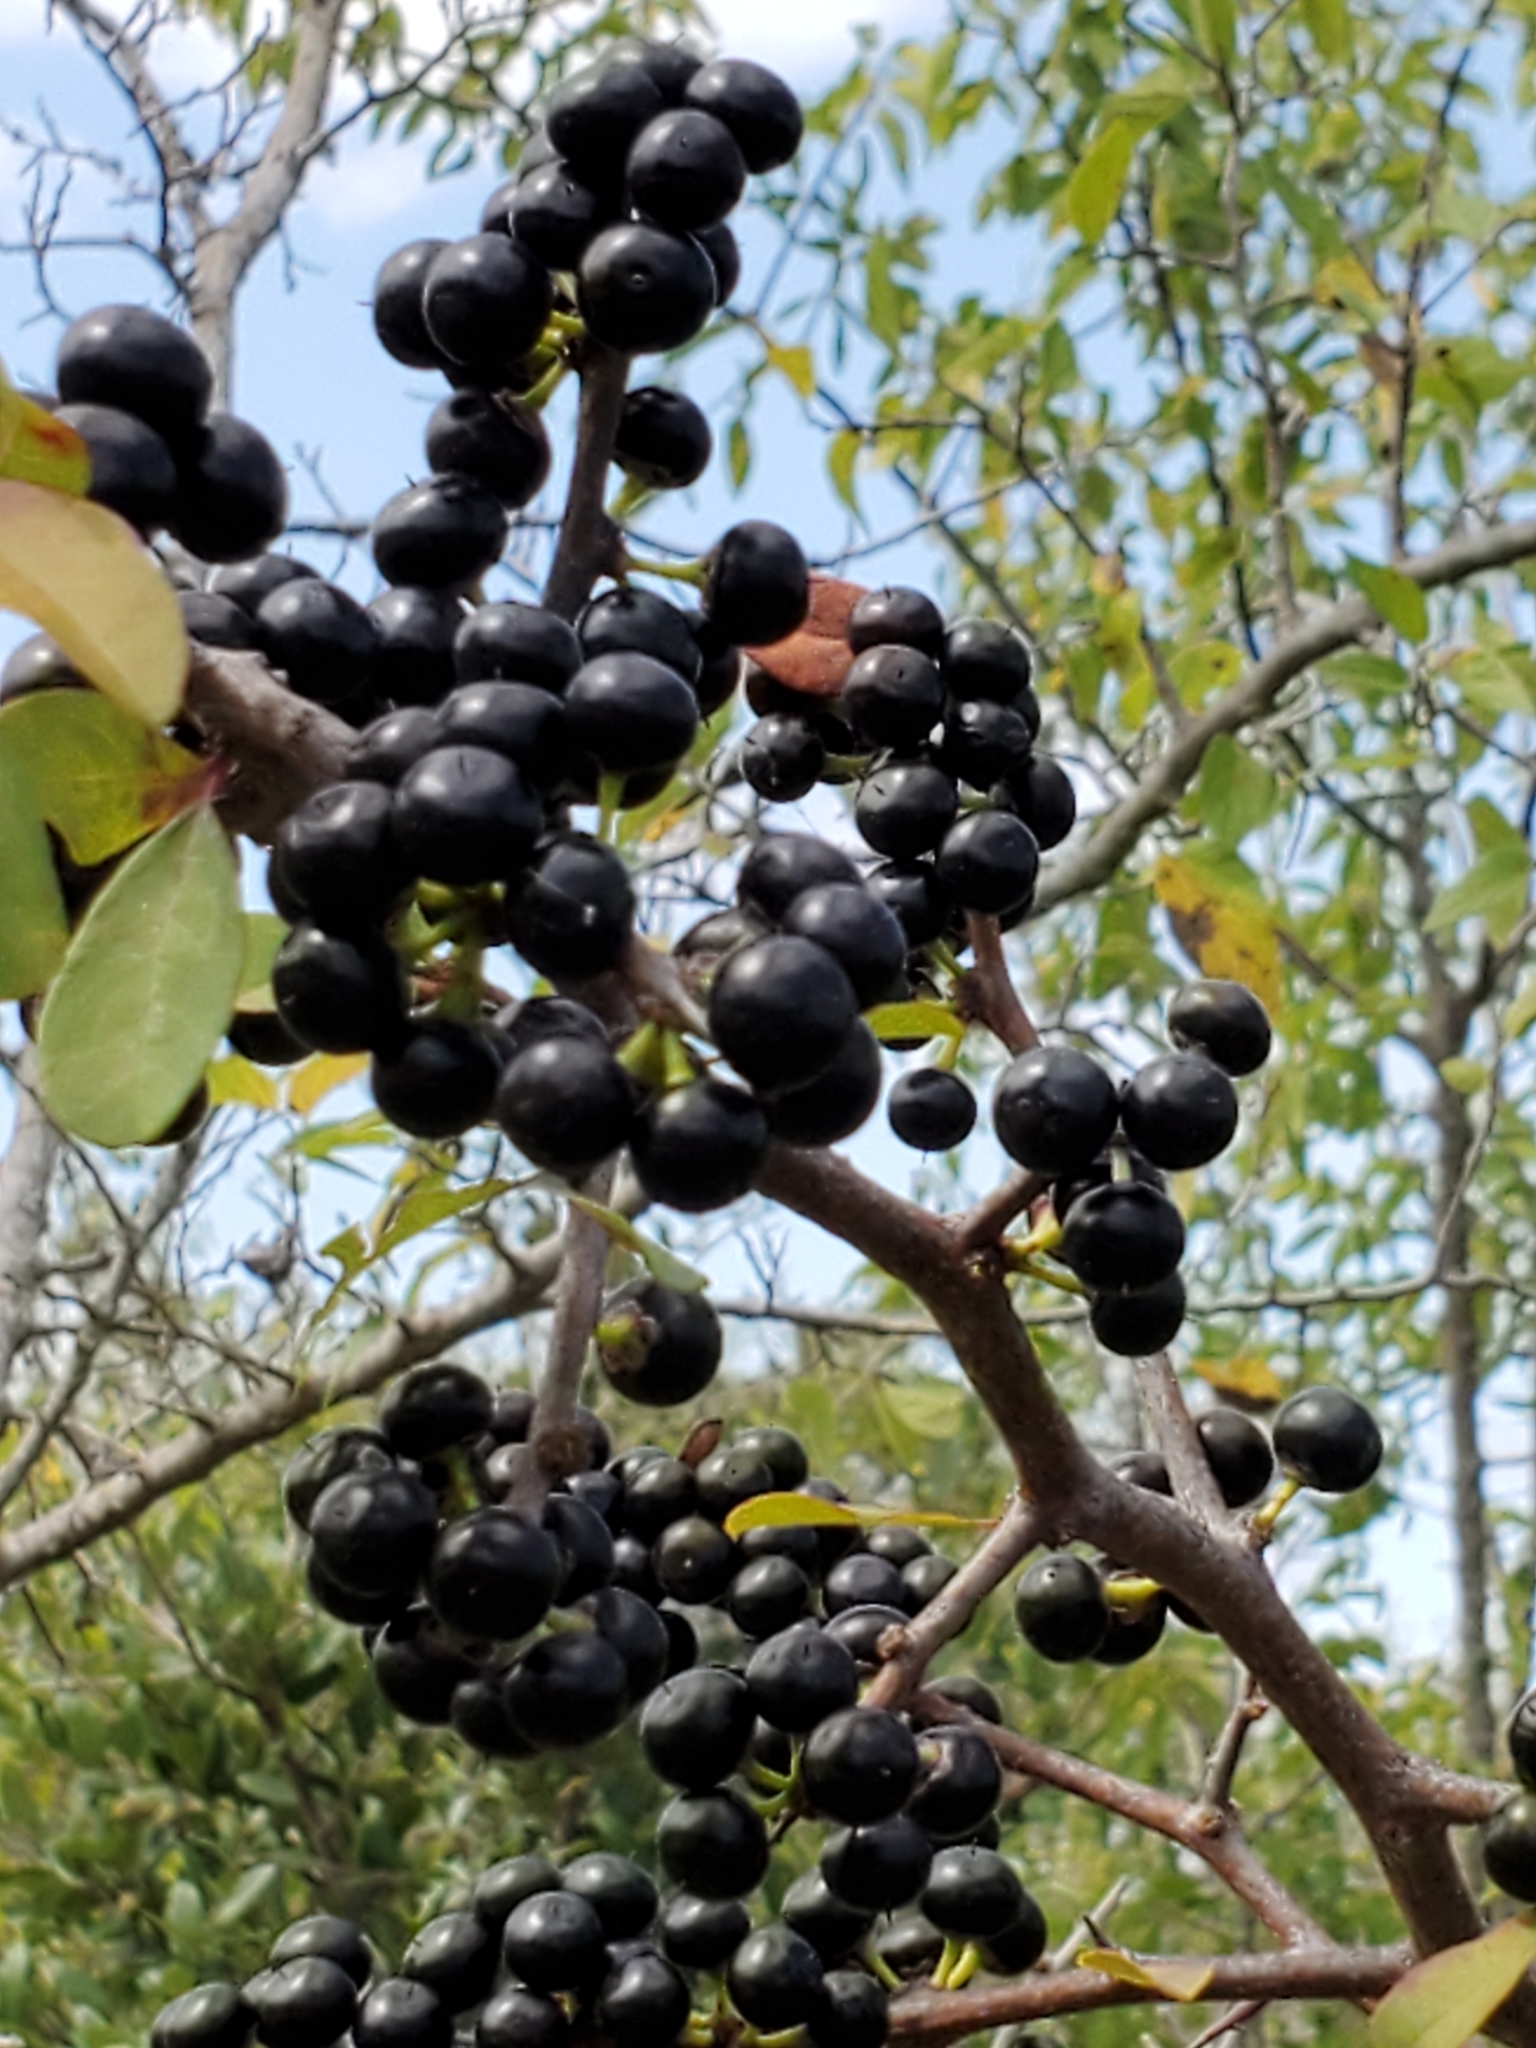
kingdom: Plantae
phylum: Tracheophyta
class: Magnoliopsida
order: Ericales
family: Sapotaceae
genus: Sideroxylon
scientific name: Sideroxylon lanuginosum
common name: Chittamwood
